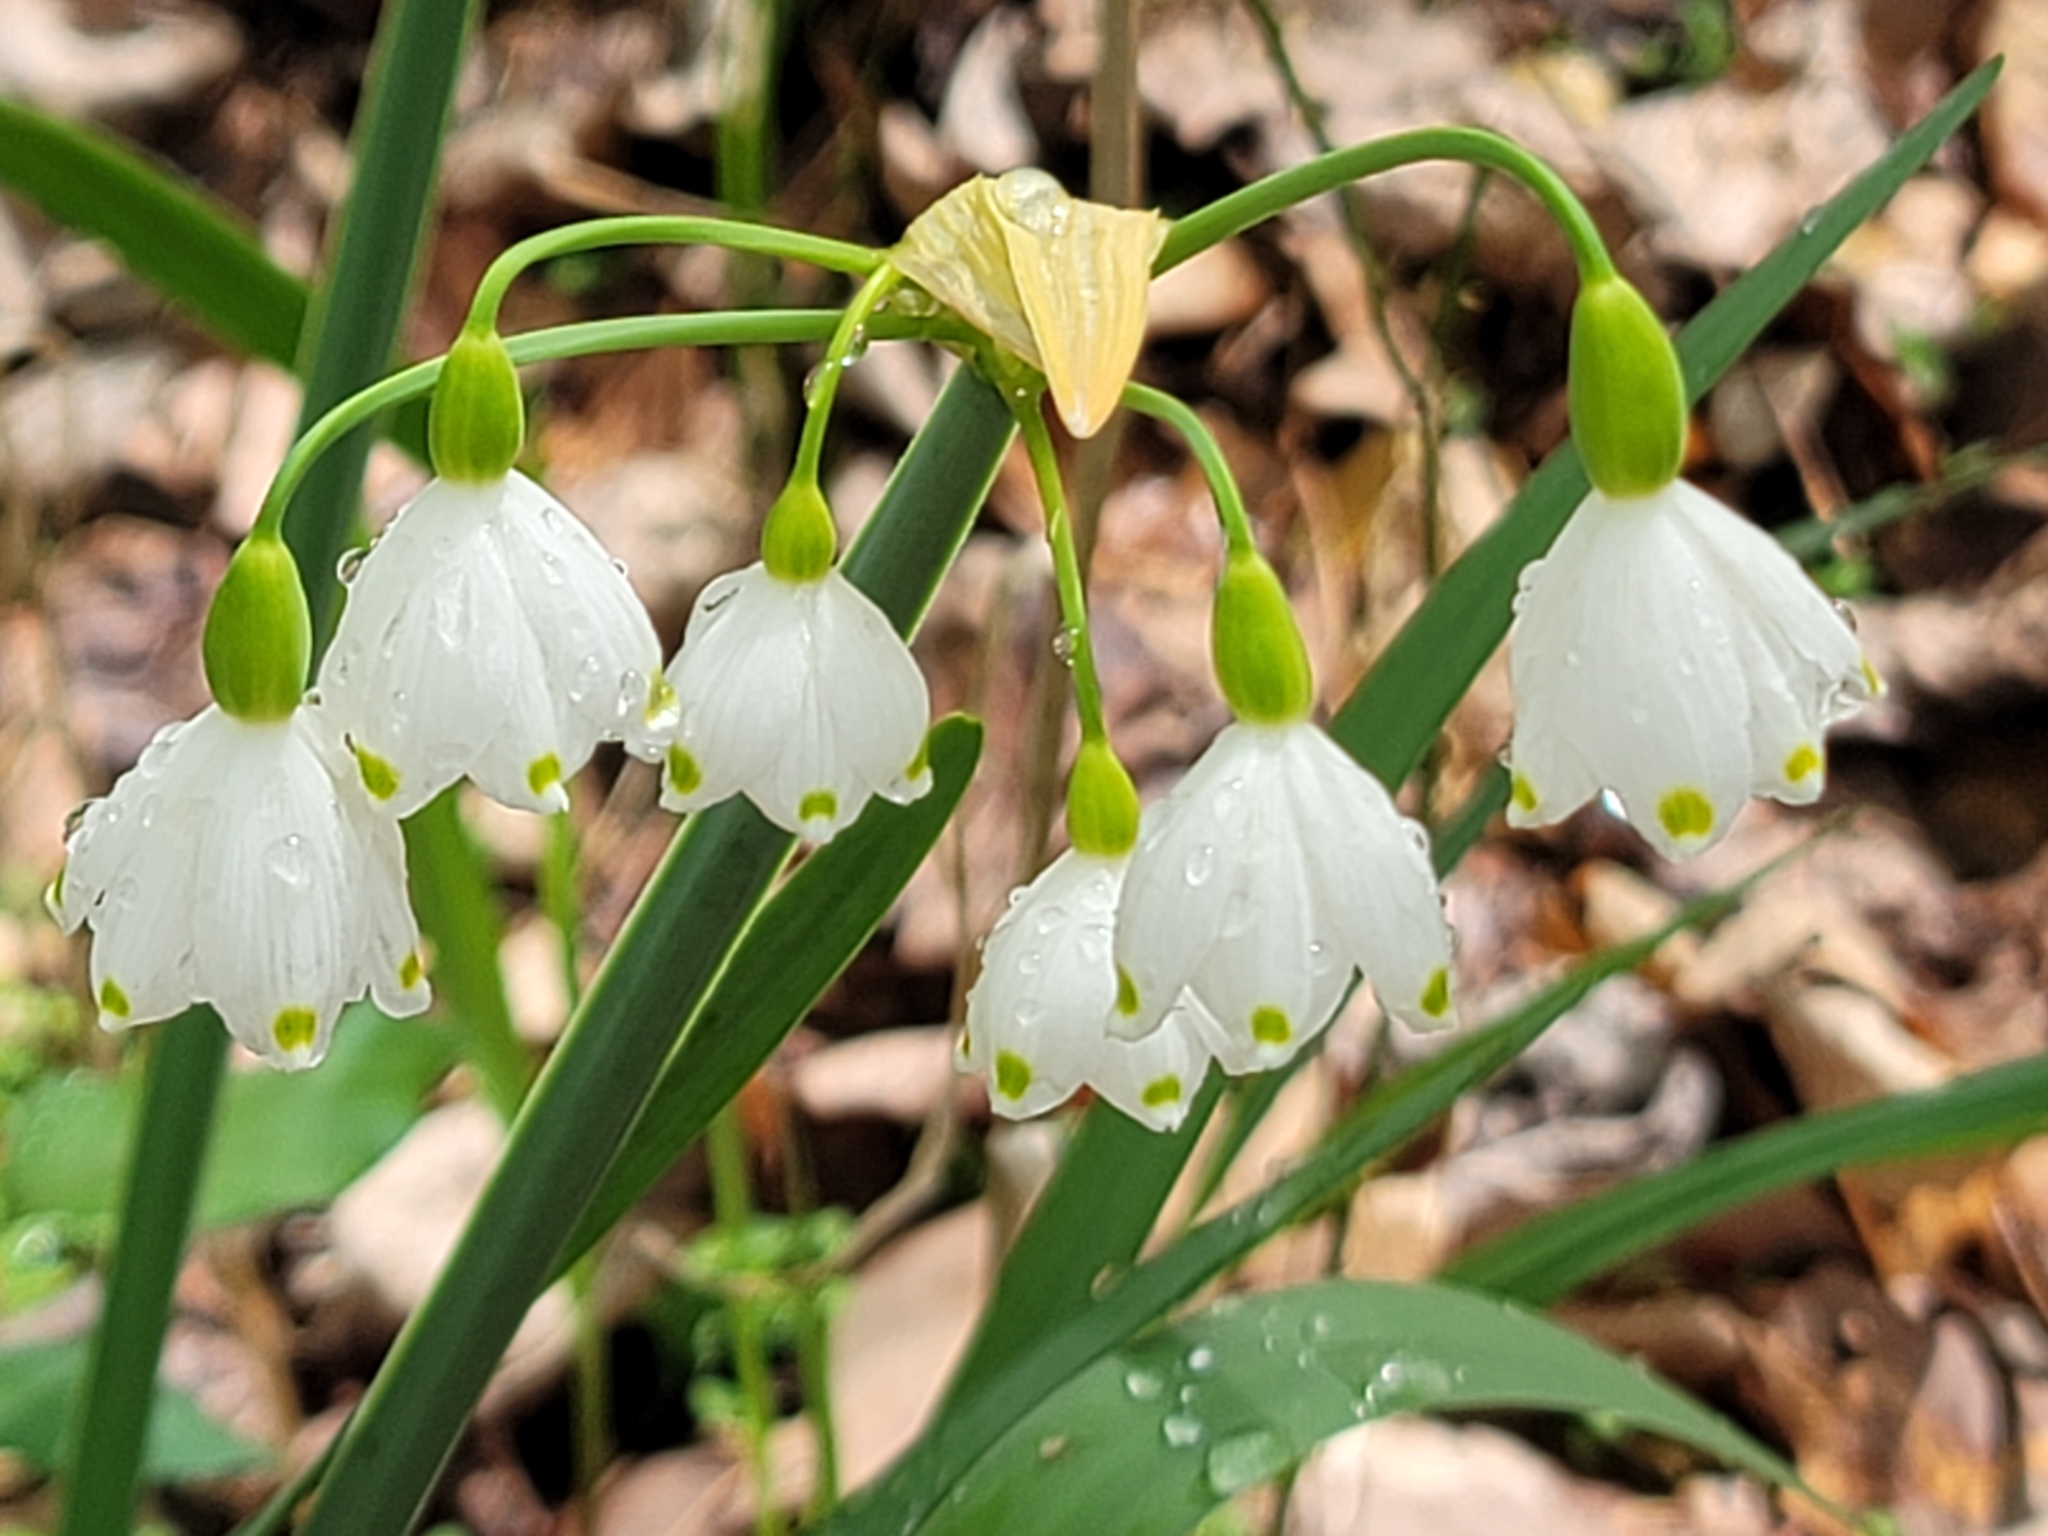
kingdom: Plantae
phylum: Tracheophyta
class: Liliopsida
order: Asparagales
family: Amaryllidaceae
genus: Leucojum
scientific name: Leucojum aestivum
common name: Summer snowflake
